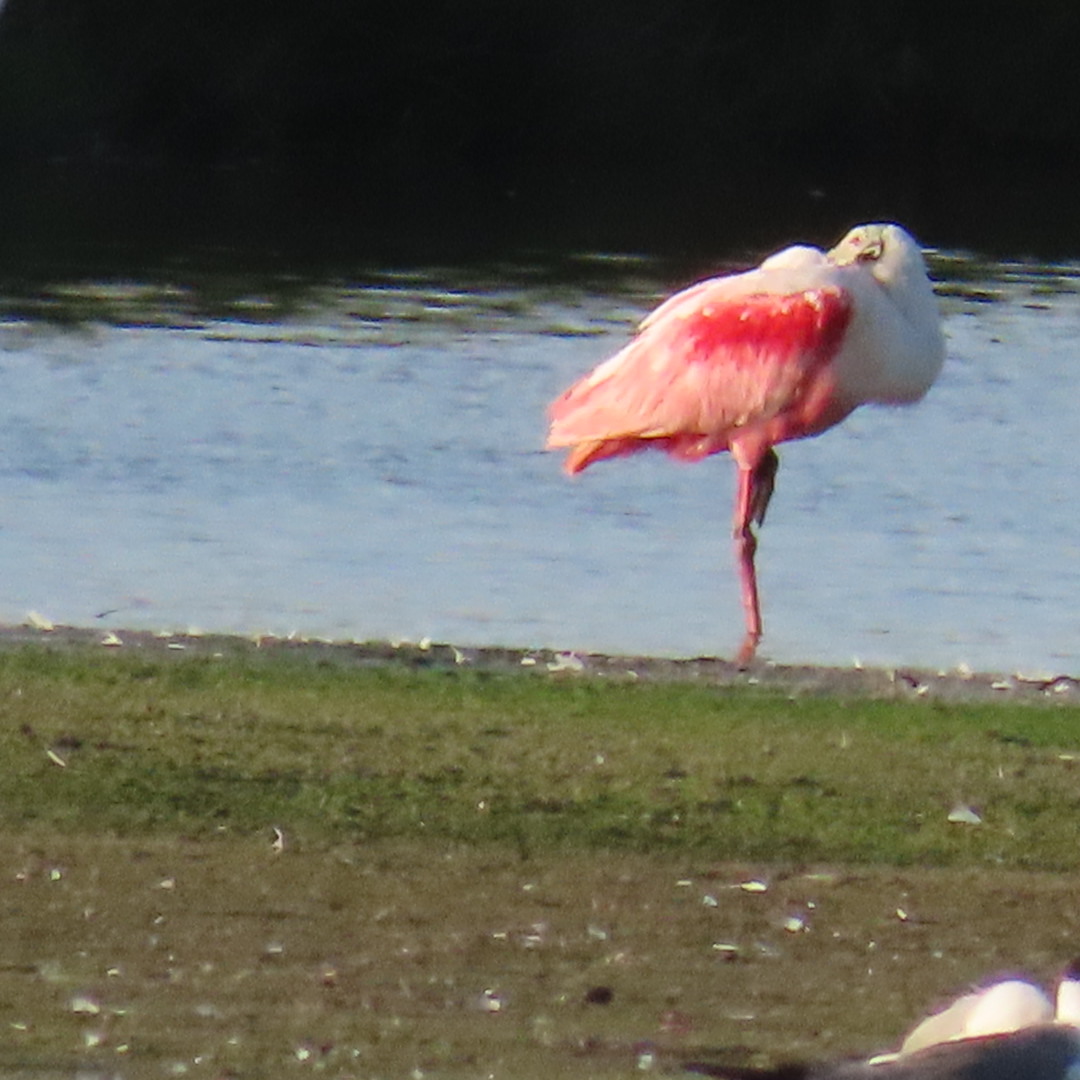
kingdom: Animalia
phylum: Chordata
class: Aves
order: Pelecaniformes
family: Threskiornithidae
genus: Platalea
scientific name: Platalea ajaja
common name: Roseate spoonbill
